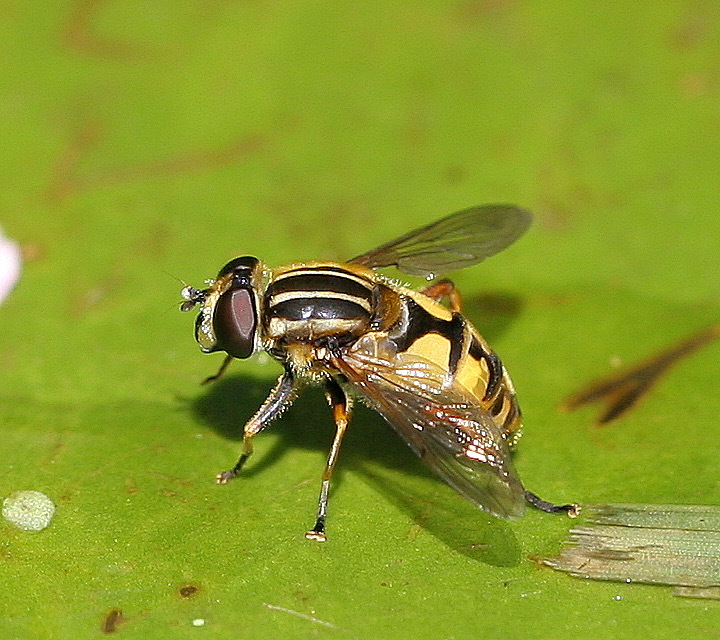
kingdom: Animalia
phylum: Arthropoda
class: Insecta
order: Diptera
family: Syrphidae
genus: Helophilus
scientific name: Helophilus pendulus
